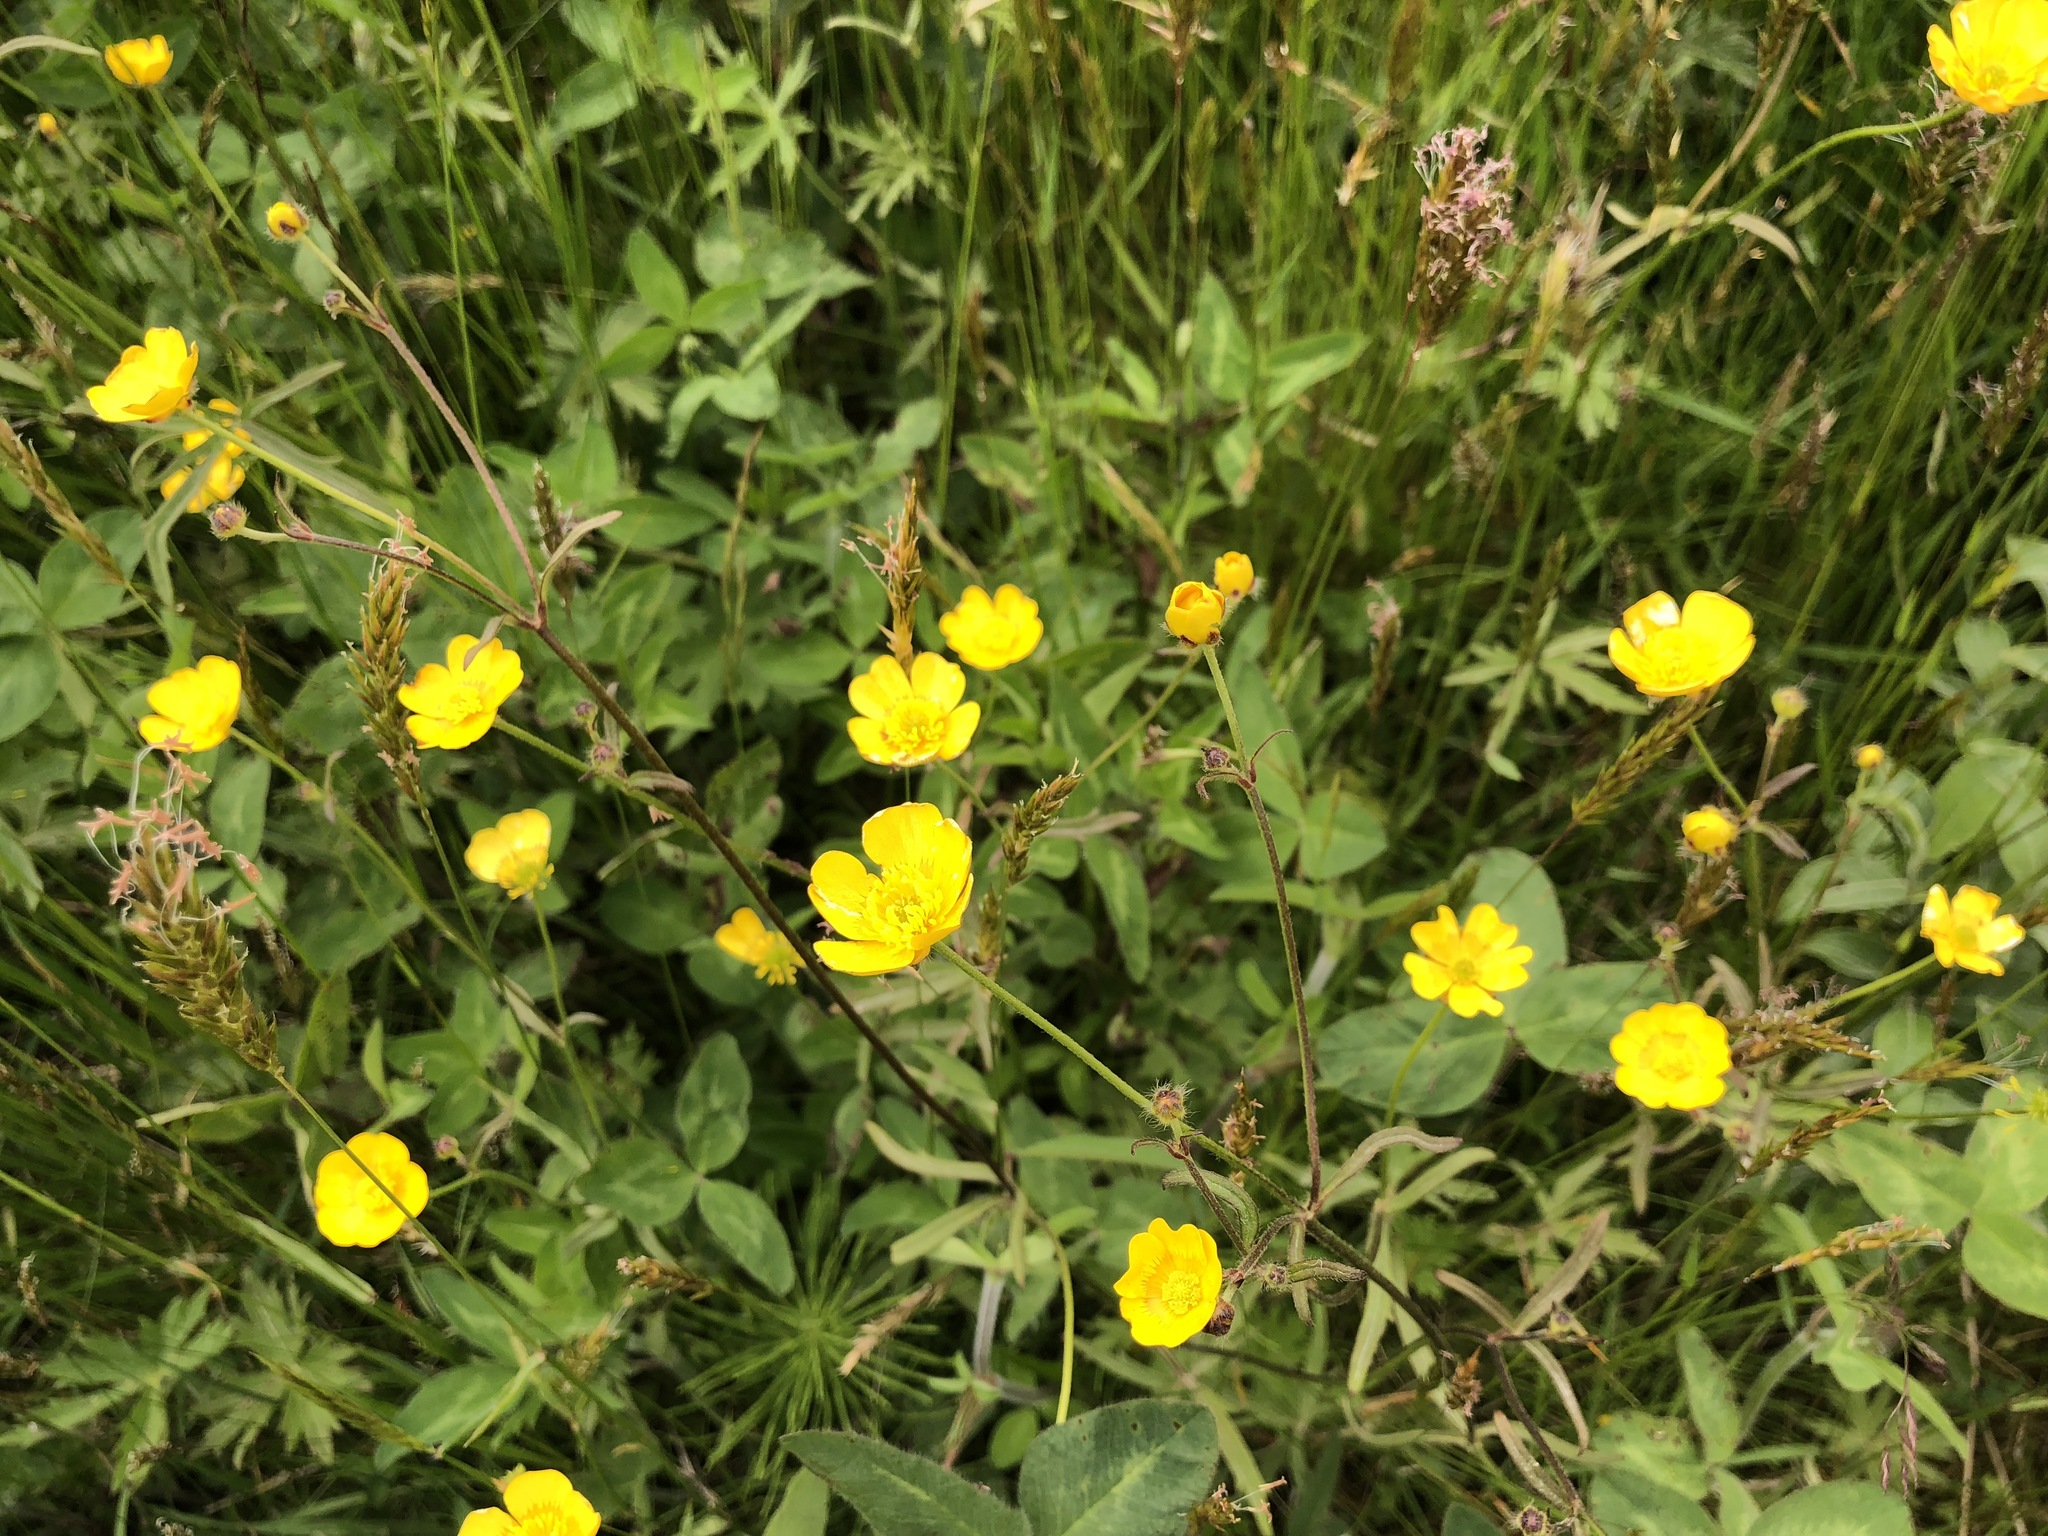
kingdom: Plantae
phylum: Tracheophyta
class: Magnoliopsida
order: Ranunculales
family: Ranunculaceae
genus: Ranunculus
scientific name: Ranunculus acris
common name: Meadow buttercup
